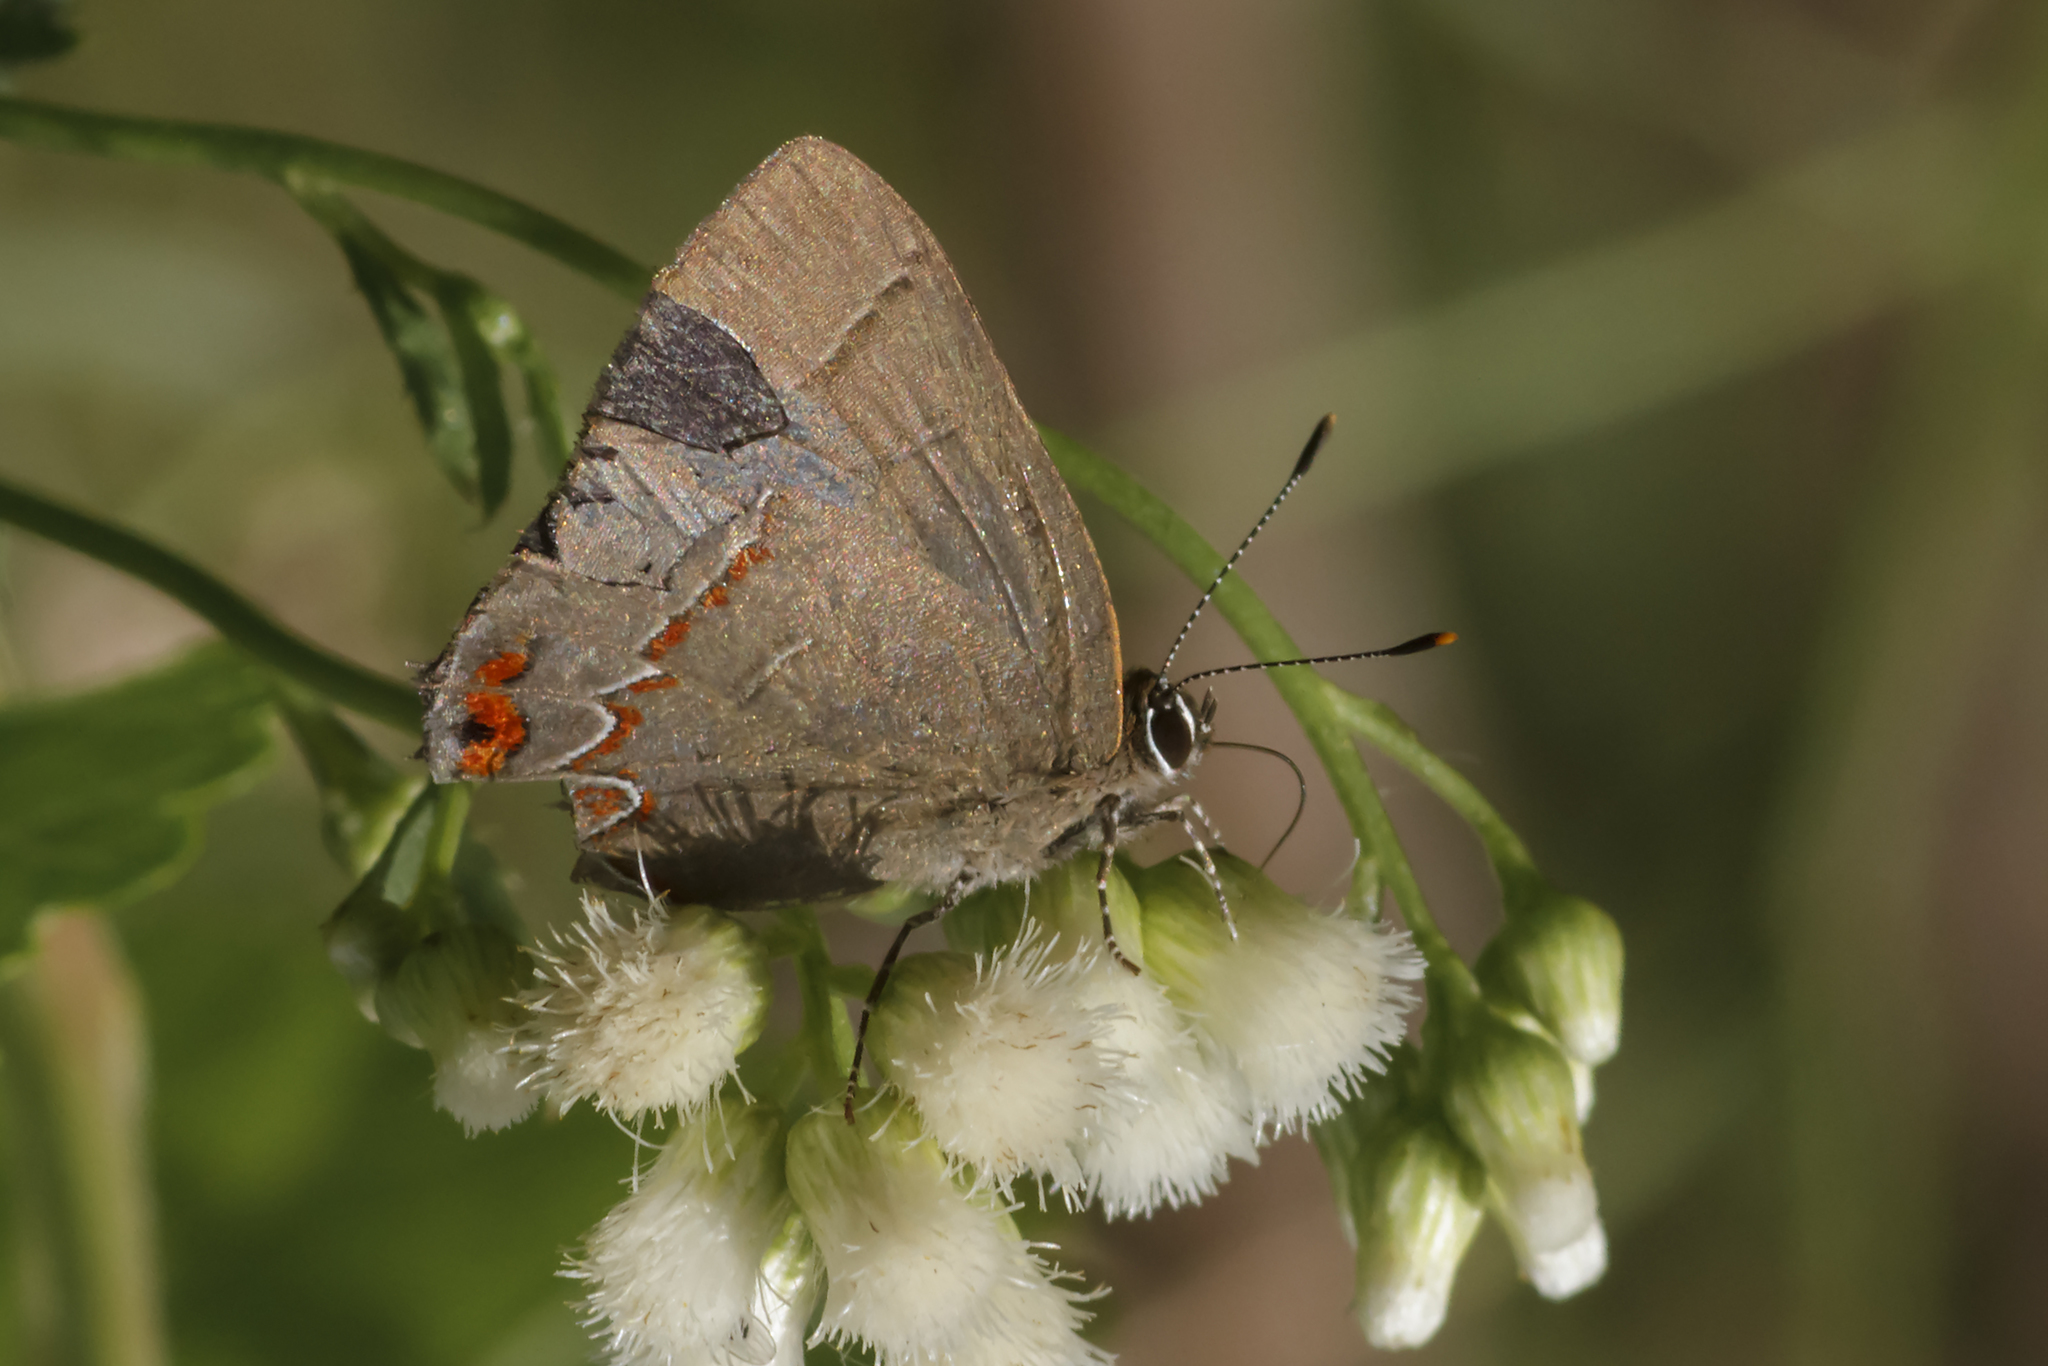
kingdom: Animalia
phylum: Arthropoda
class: Insecta
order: Lepidoptera
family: Lycaenidae
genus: Calycopis
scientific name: Calycopis caulonia
